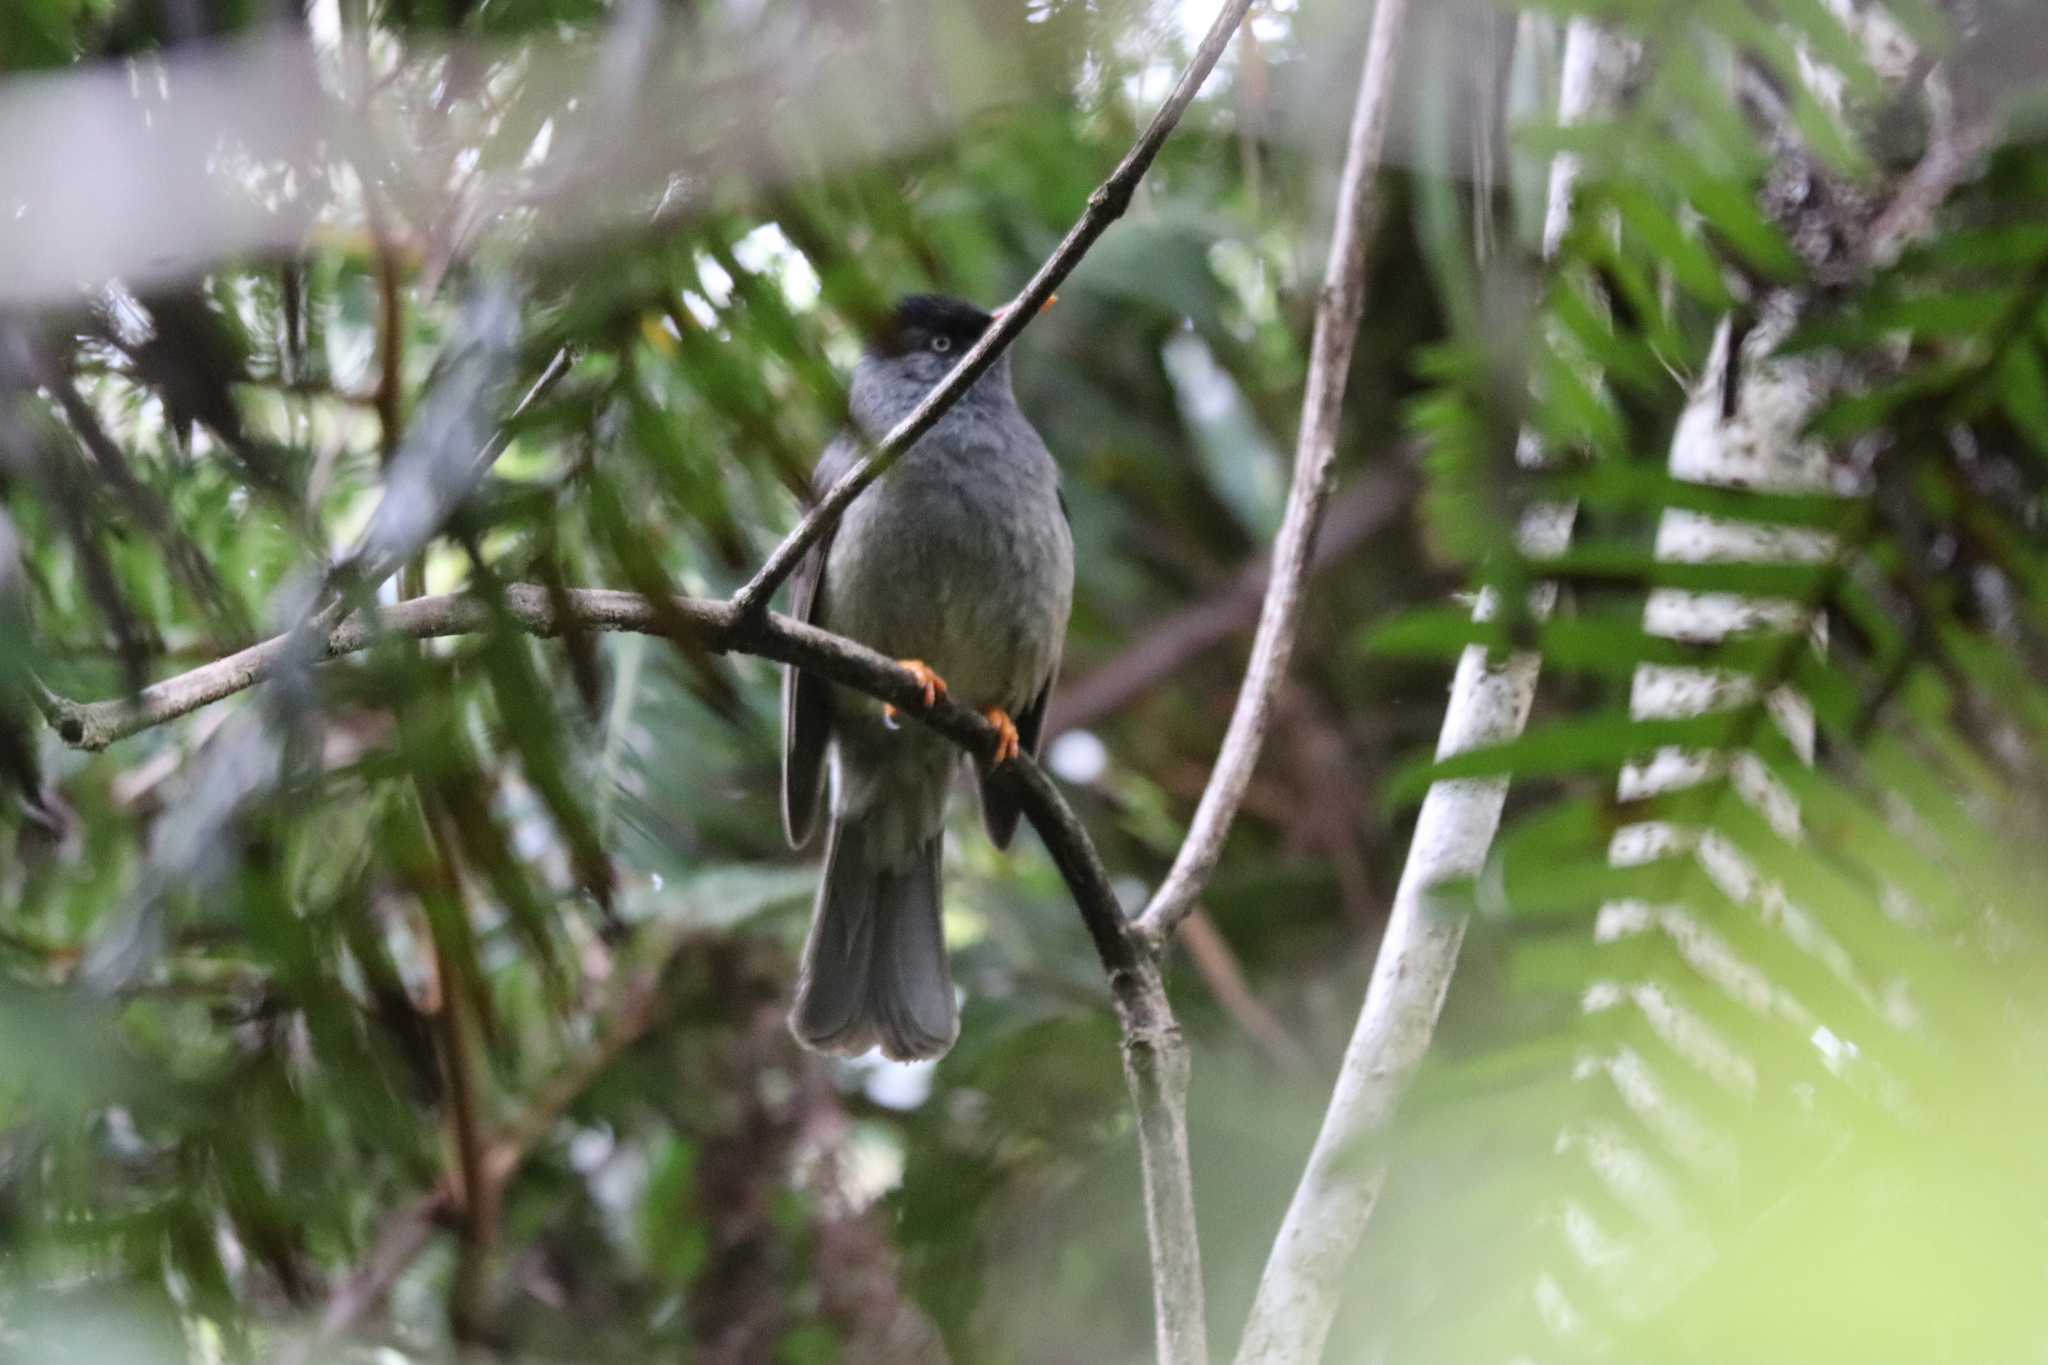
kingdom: Animalia
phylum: Chordata
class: Aves
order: Passeriformes
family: Pycnonotidae
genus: Hypsipetes
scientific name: Hypsipetes borbonicus
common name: Reunion bulbul
